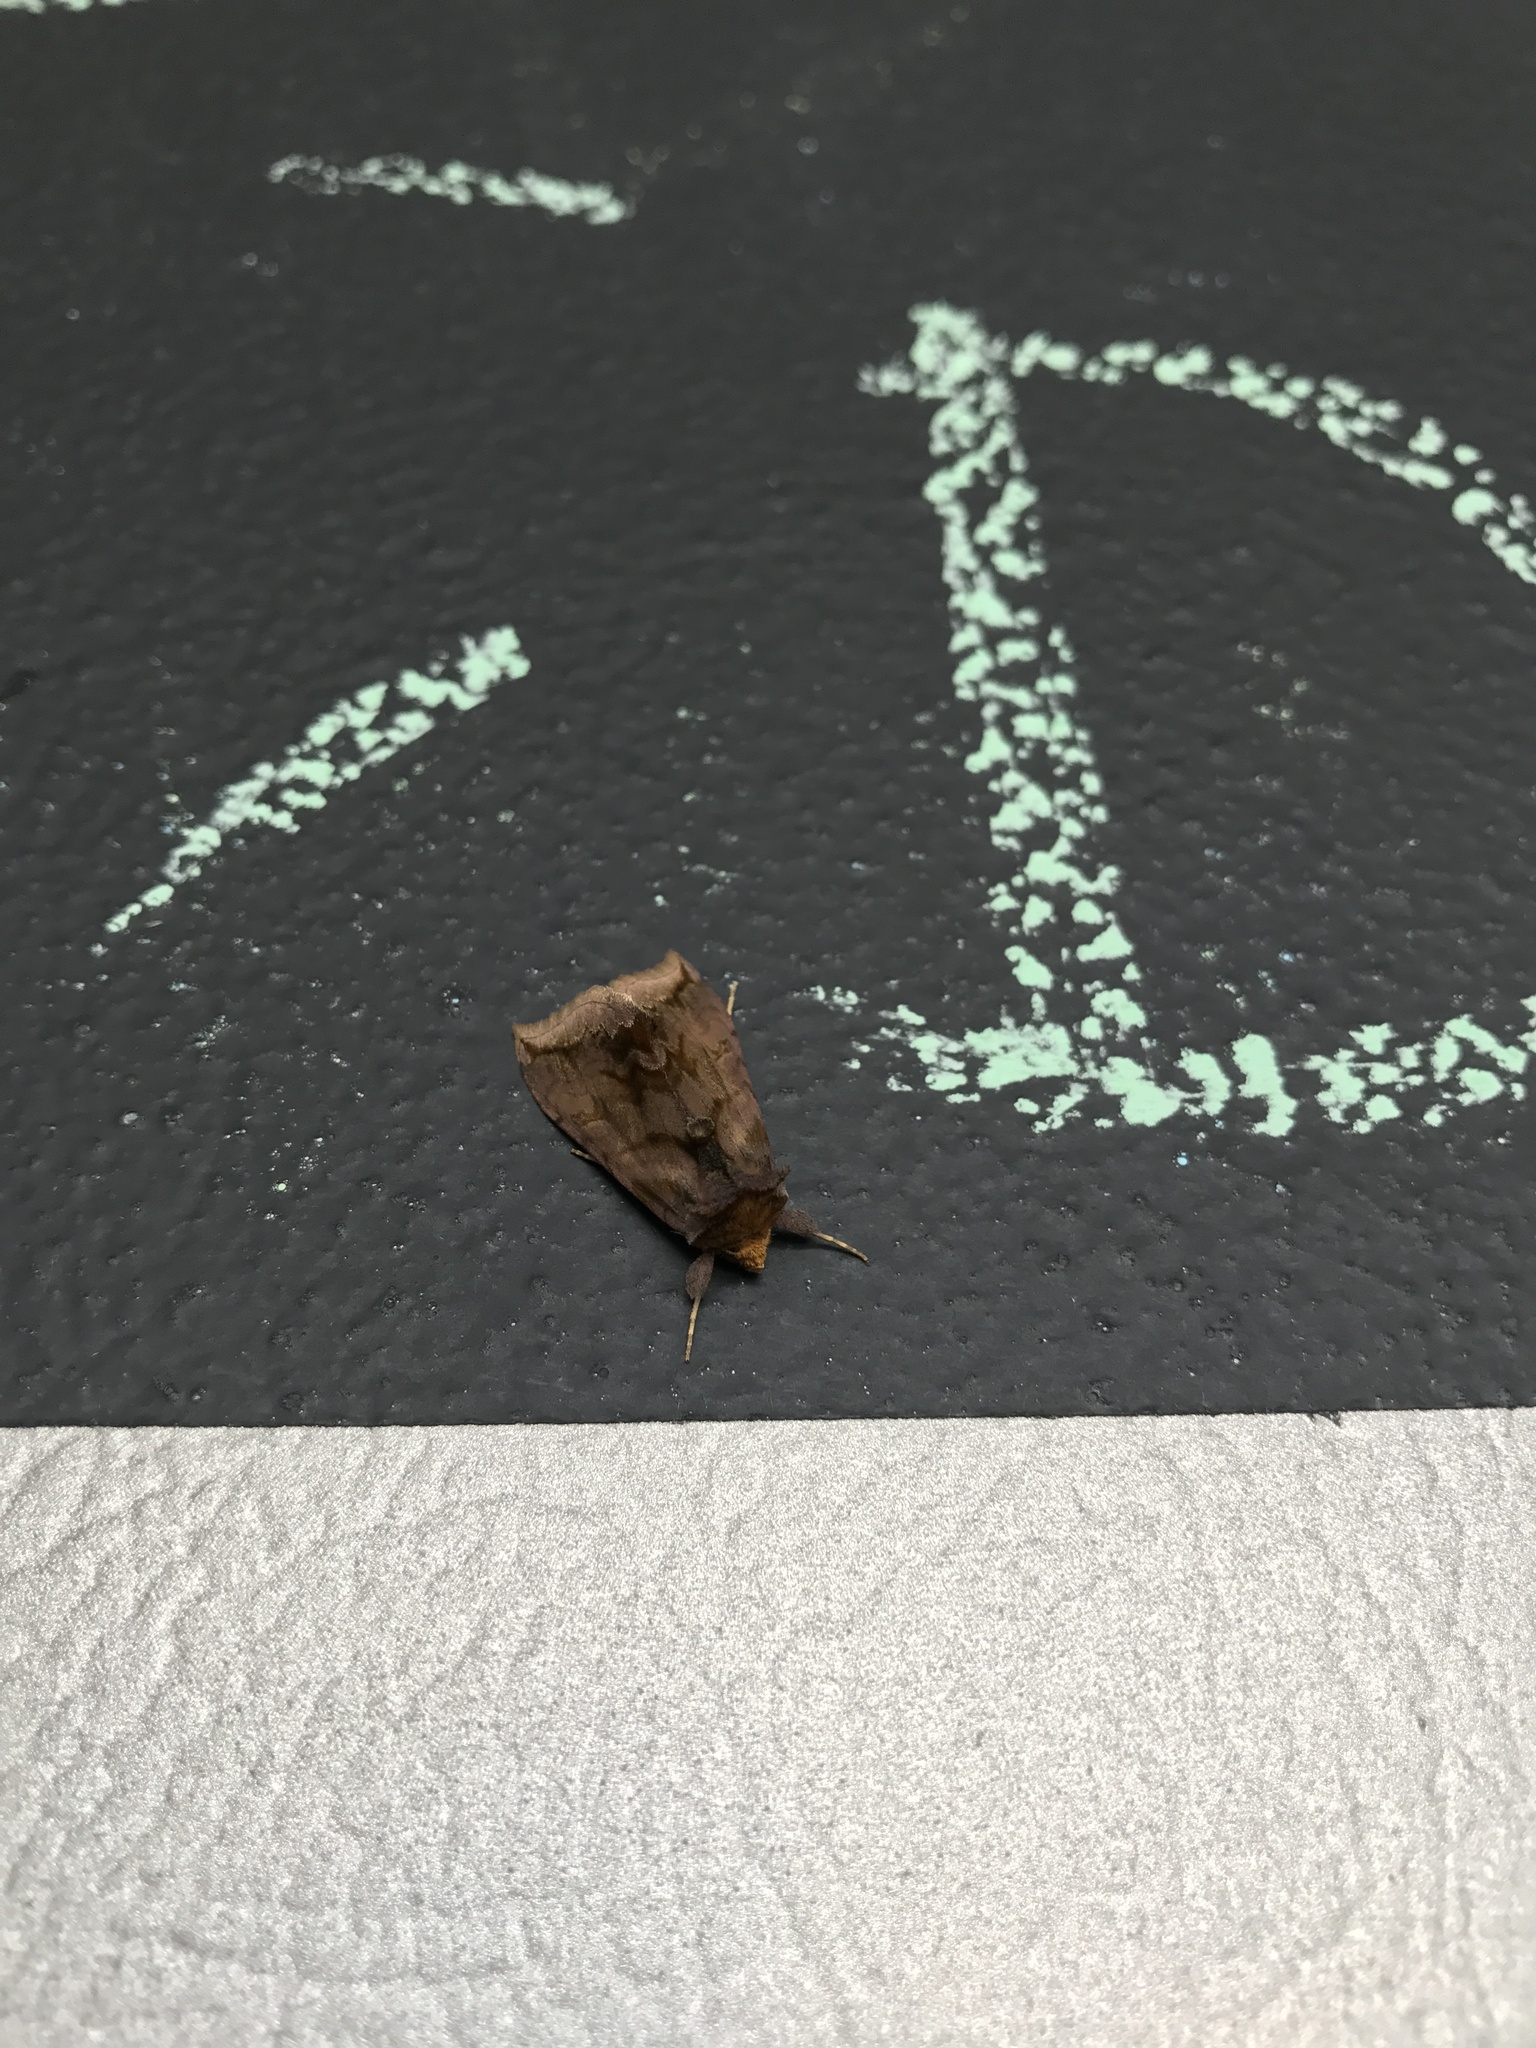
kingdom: Animalia
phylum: Arthropoda
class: Insecta
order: Lepidoptera
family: Noctuidae
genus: Nephelodes
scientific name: Nephelodes minians
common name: Bronzed cutworm
